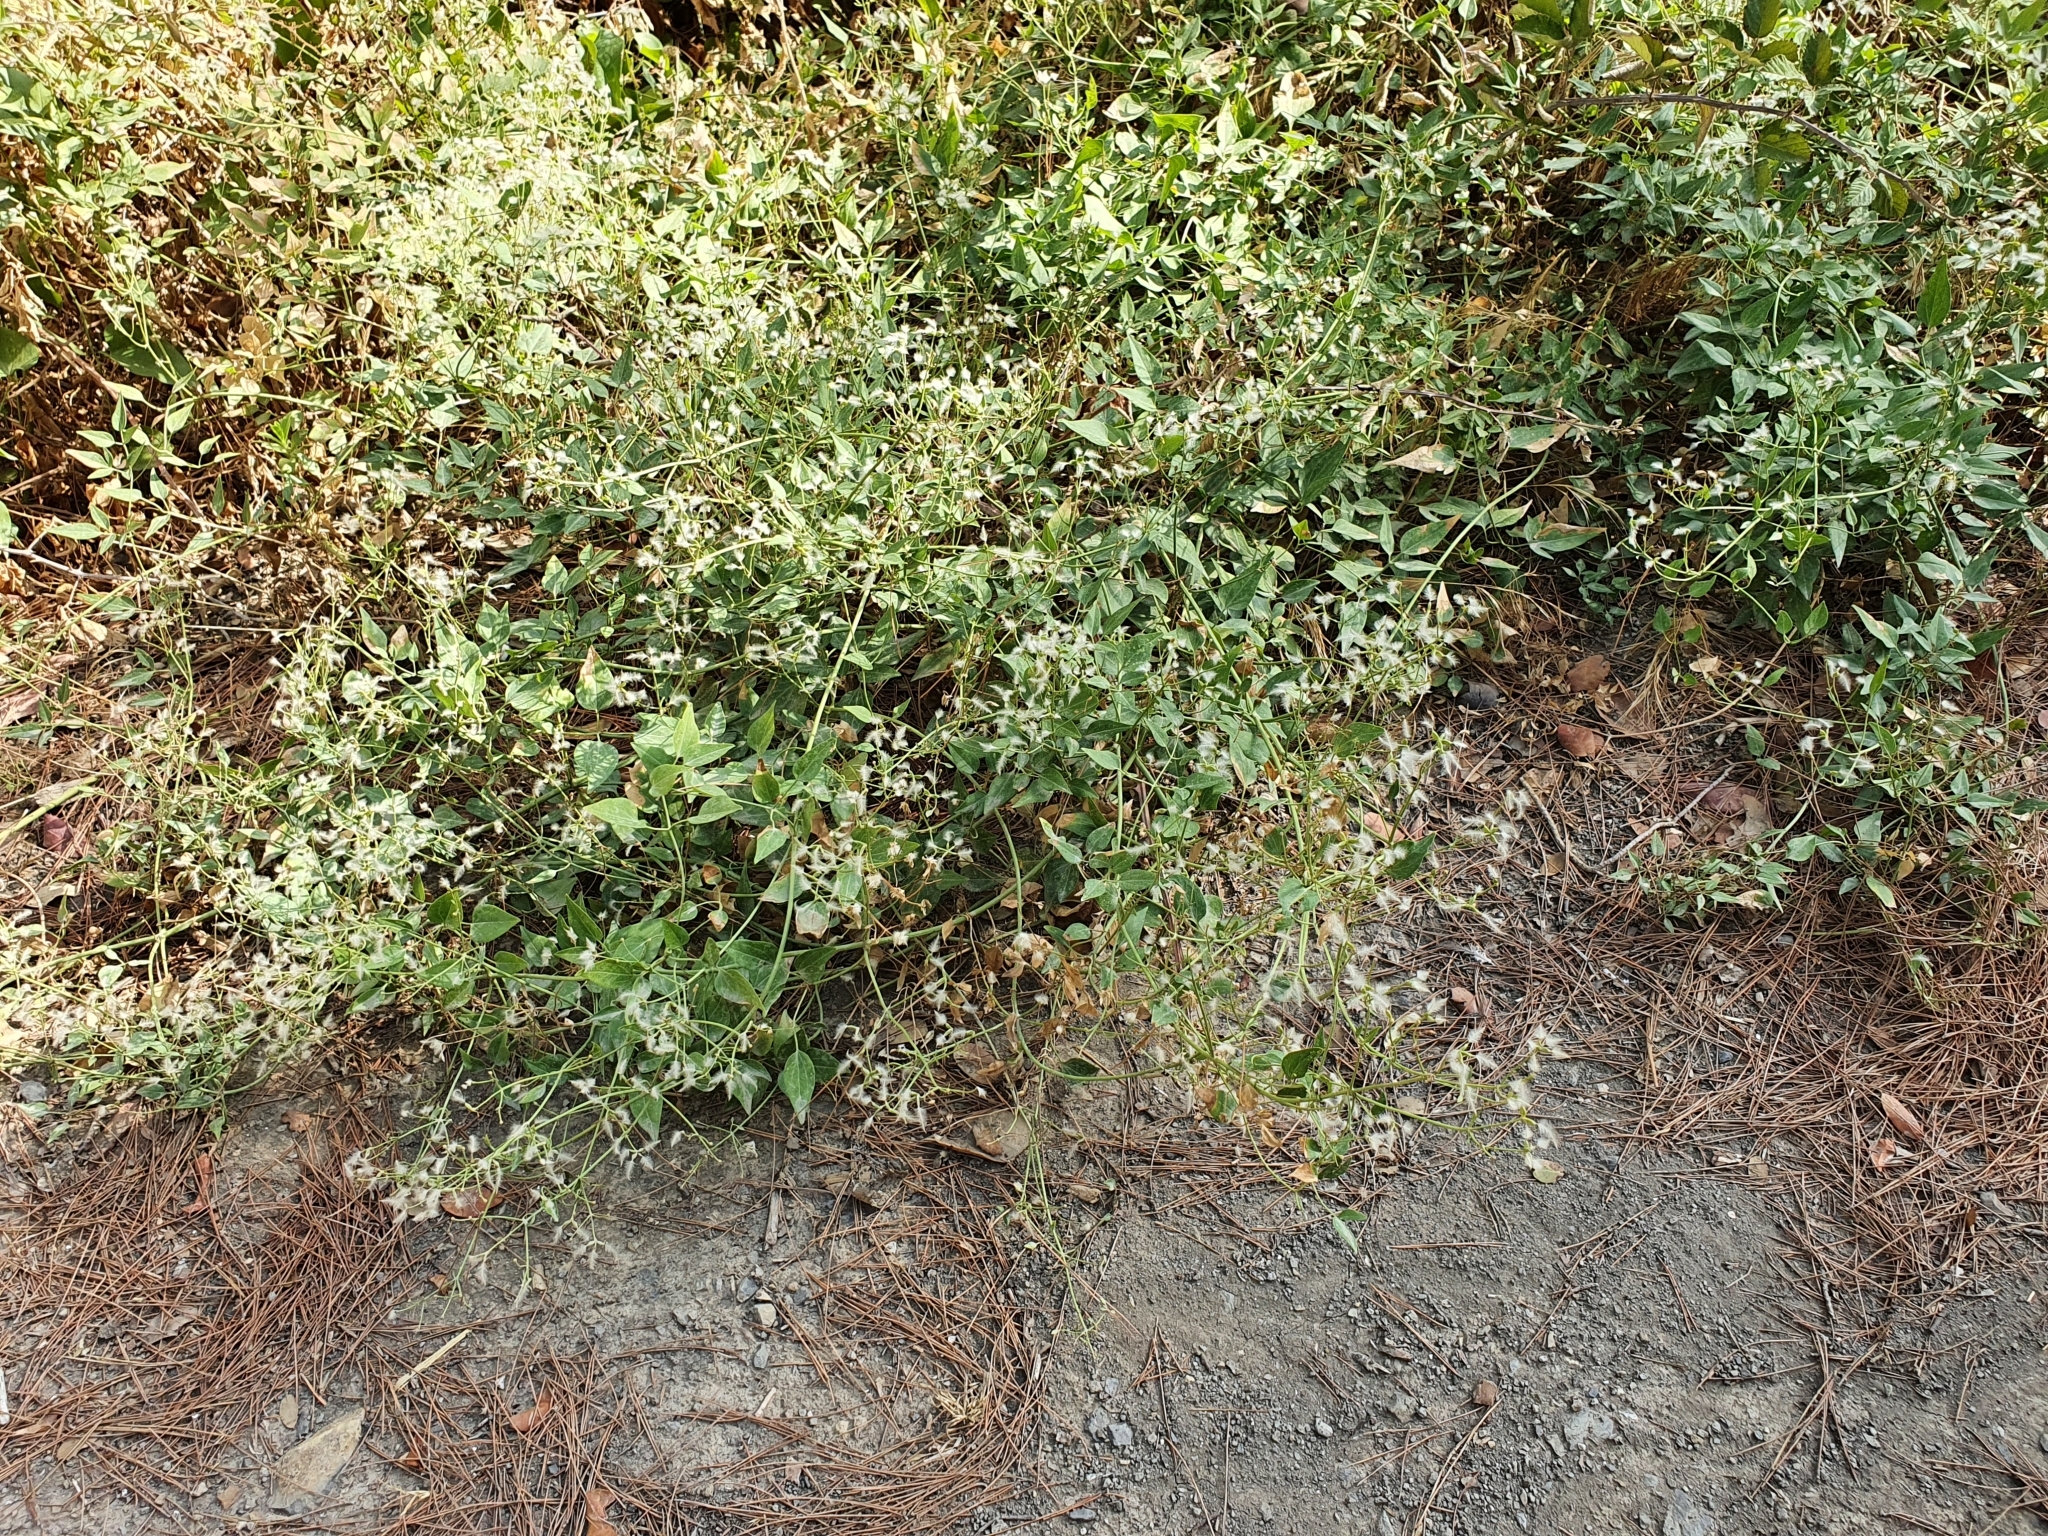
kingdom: Plantae
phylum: Tracheophyta
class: Magnoliopsida
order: Ranunculales
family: Ranunculaceae
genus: Clematis
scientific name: Clematis flammula
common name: Virgin's-bower
